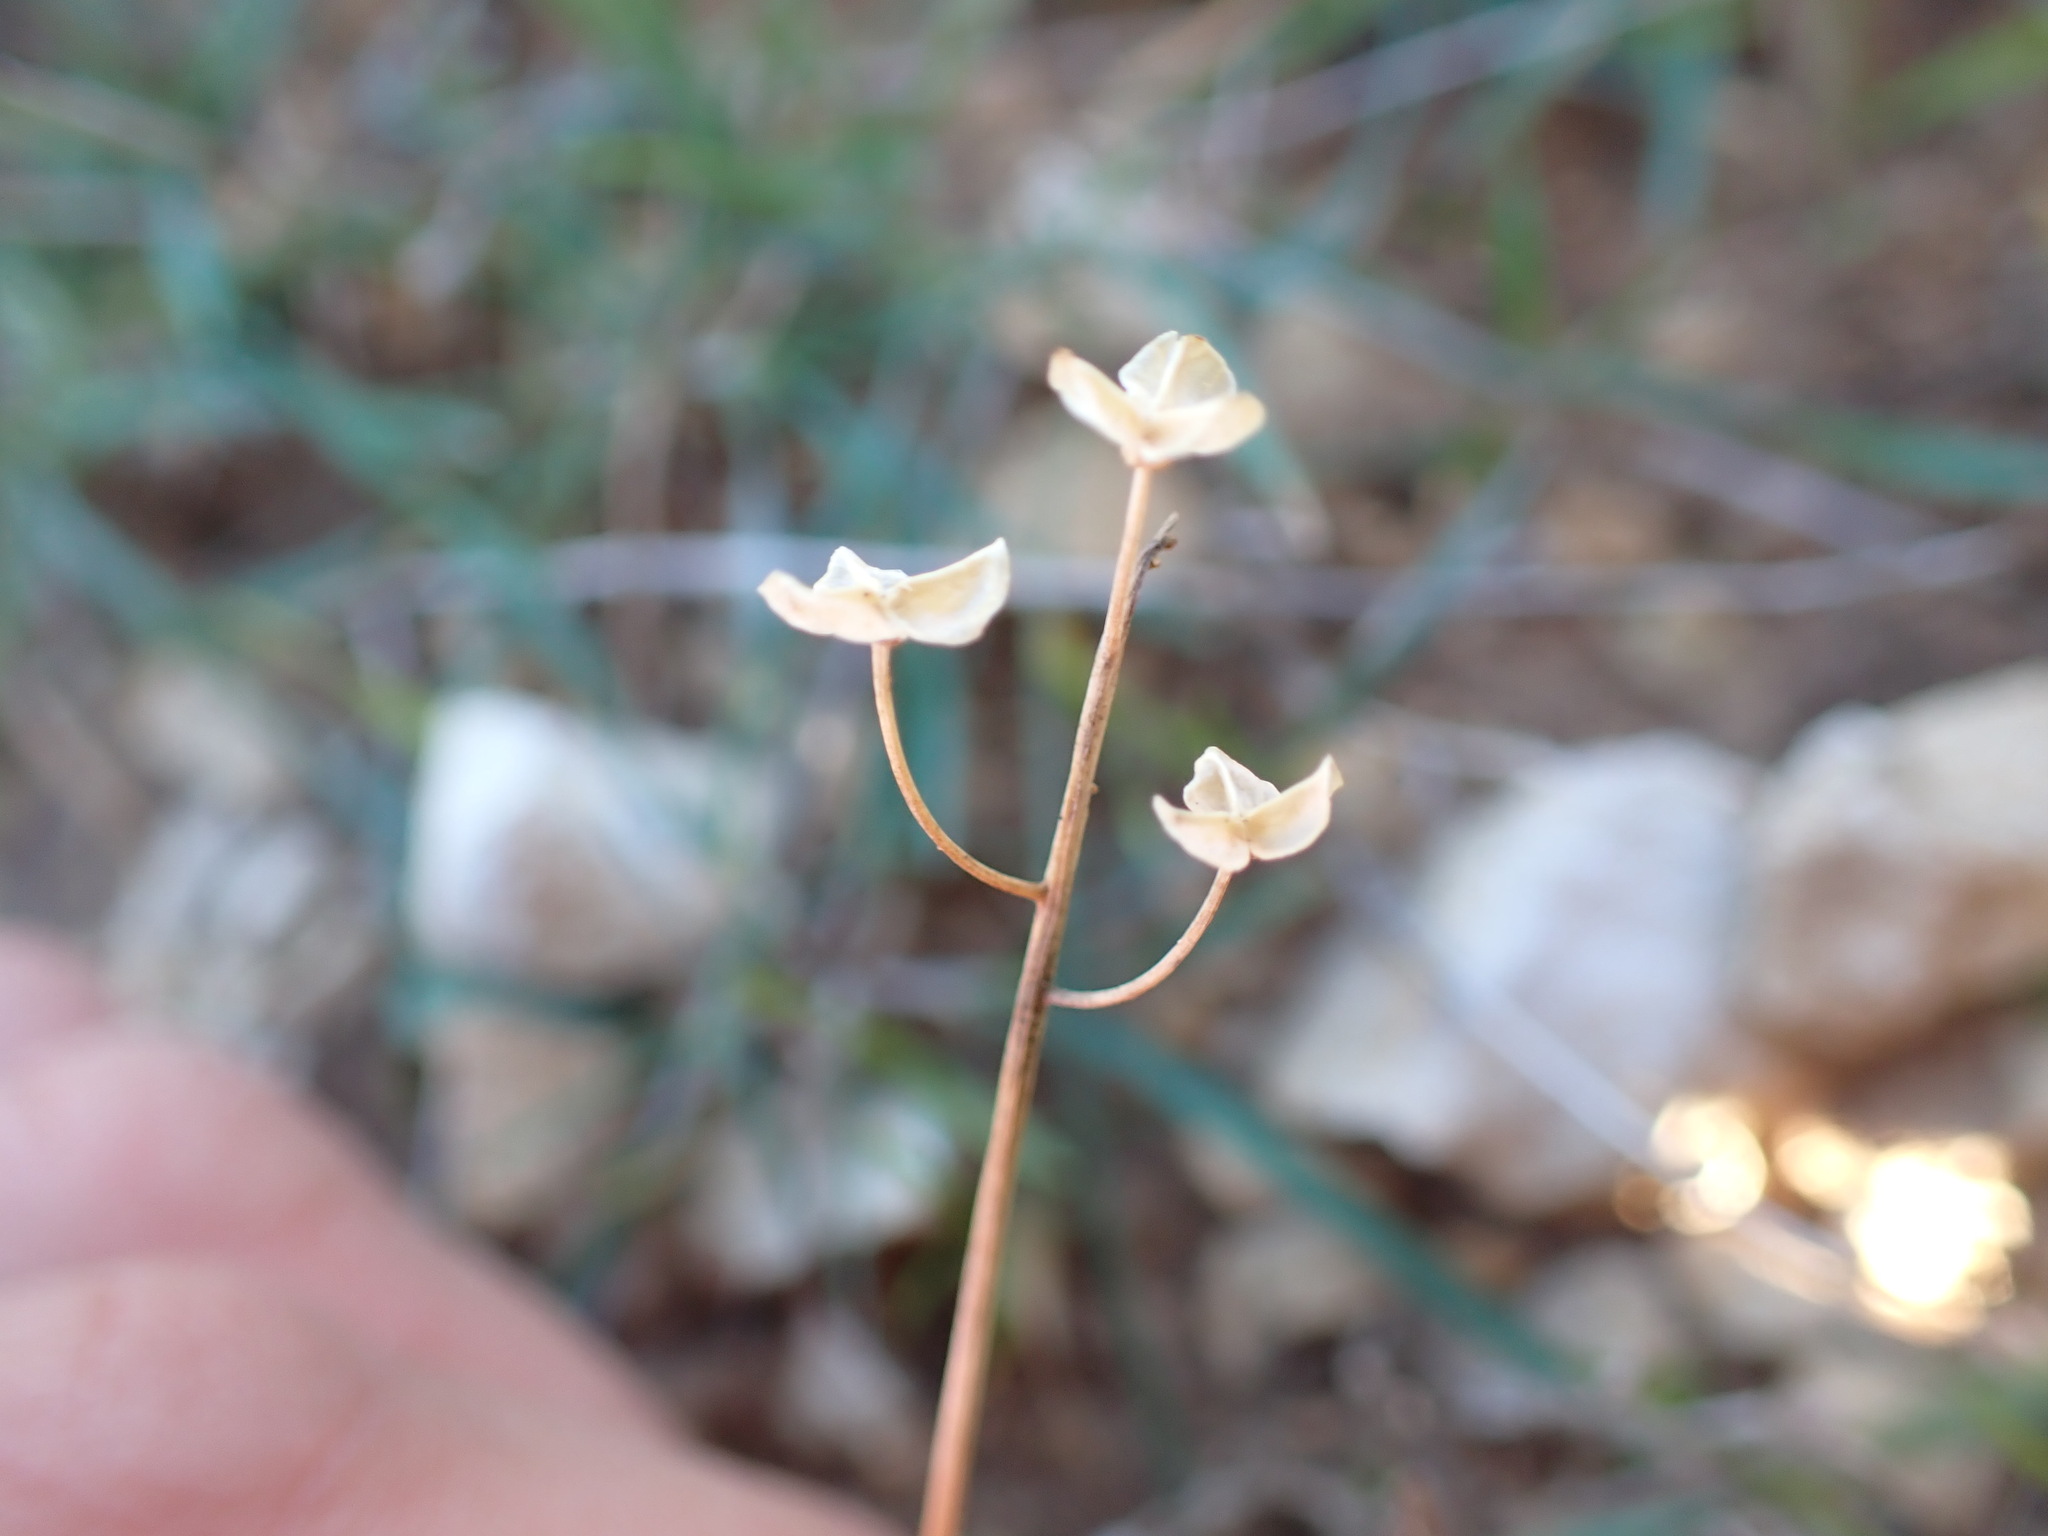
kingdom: Plantae
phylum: Tracheophyta
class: Liliopsida
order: Asparagales
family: Asparagaceae
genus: Prospero
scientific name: Prospero autumnale
